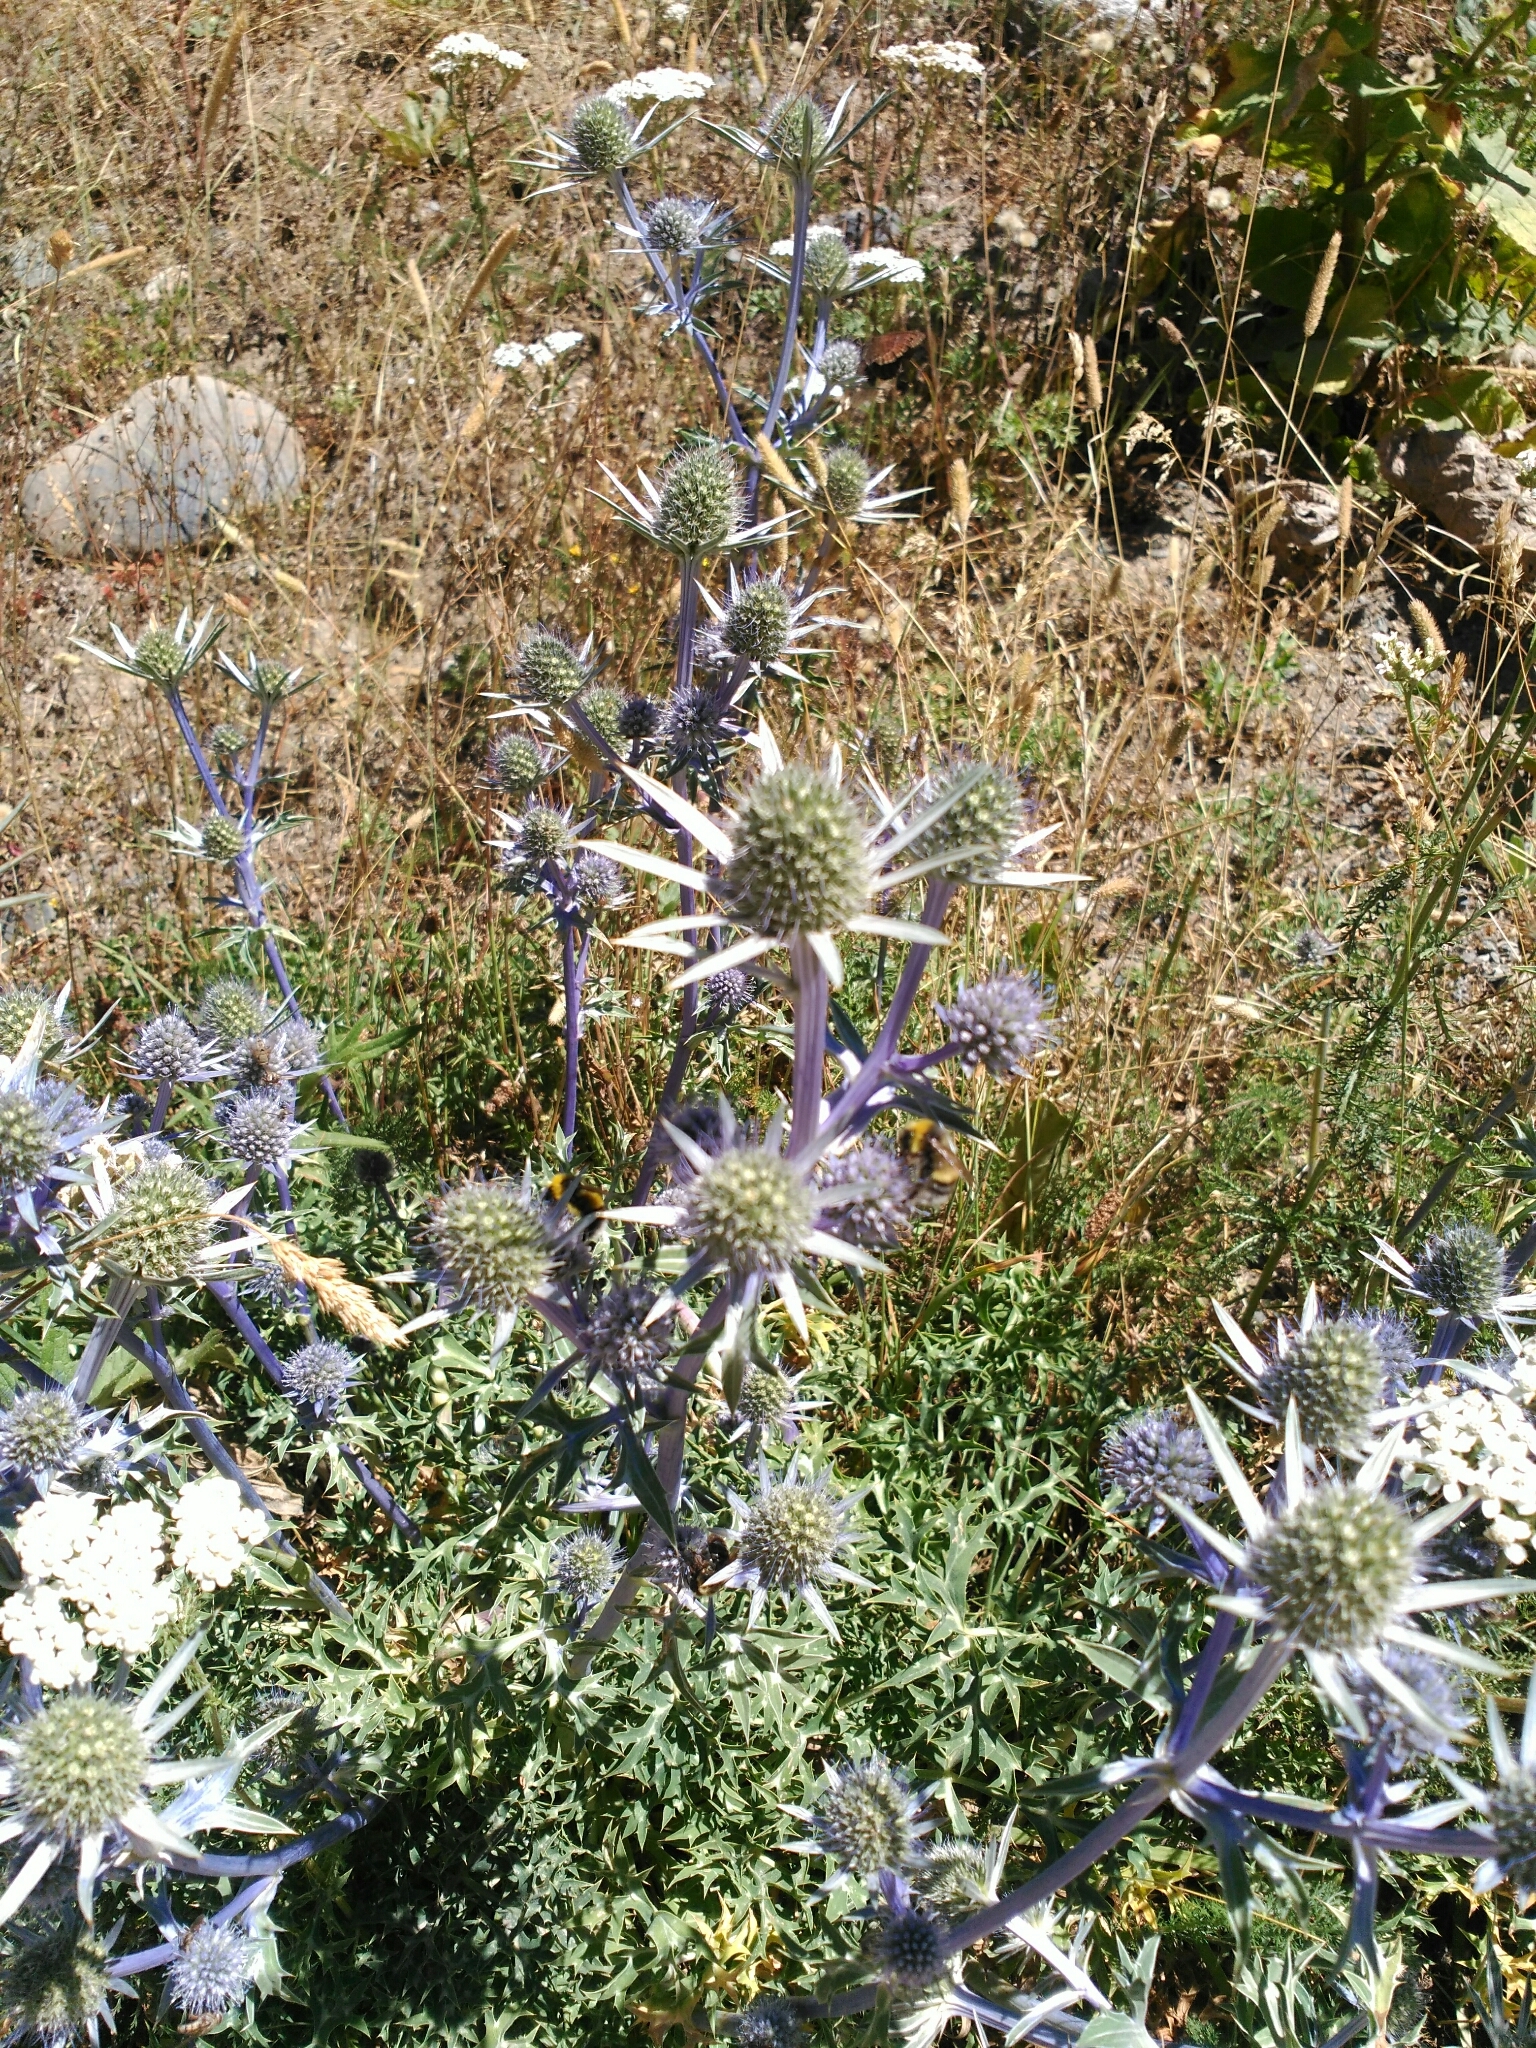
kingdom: Plantae
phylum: Tracheophyta
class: Magnoliopsida
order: Apiales
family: Apiaceae
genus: Eryngium
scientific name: Eryngium bourgatii
